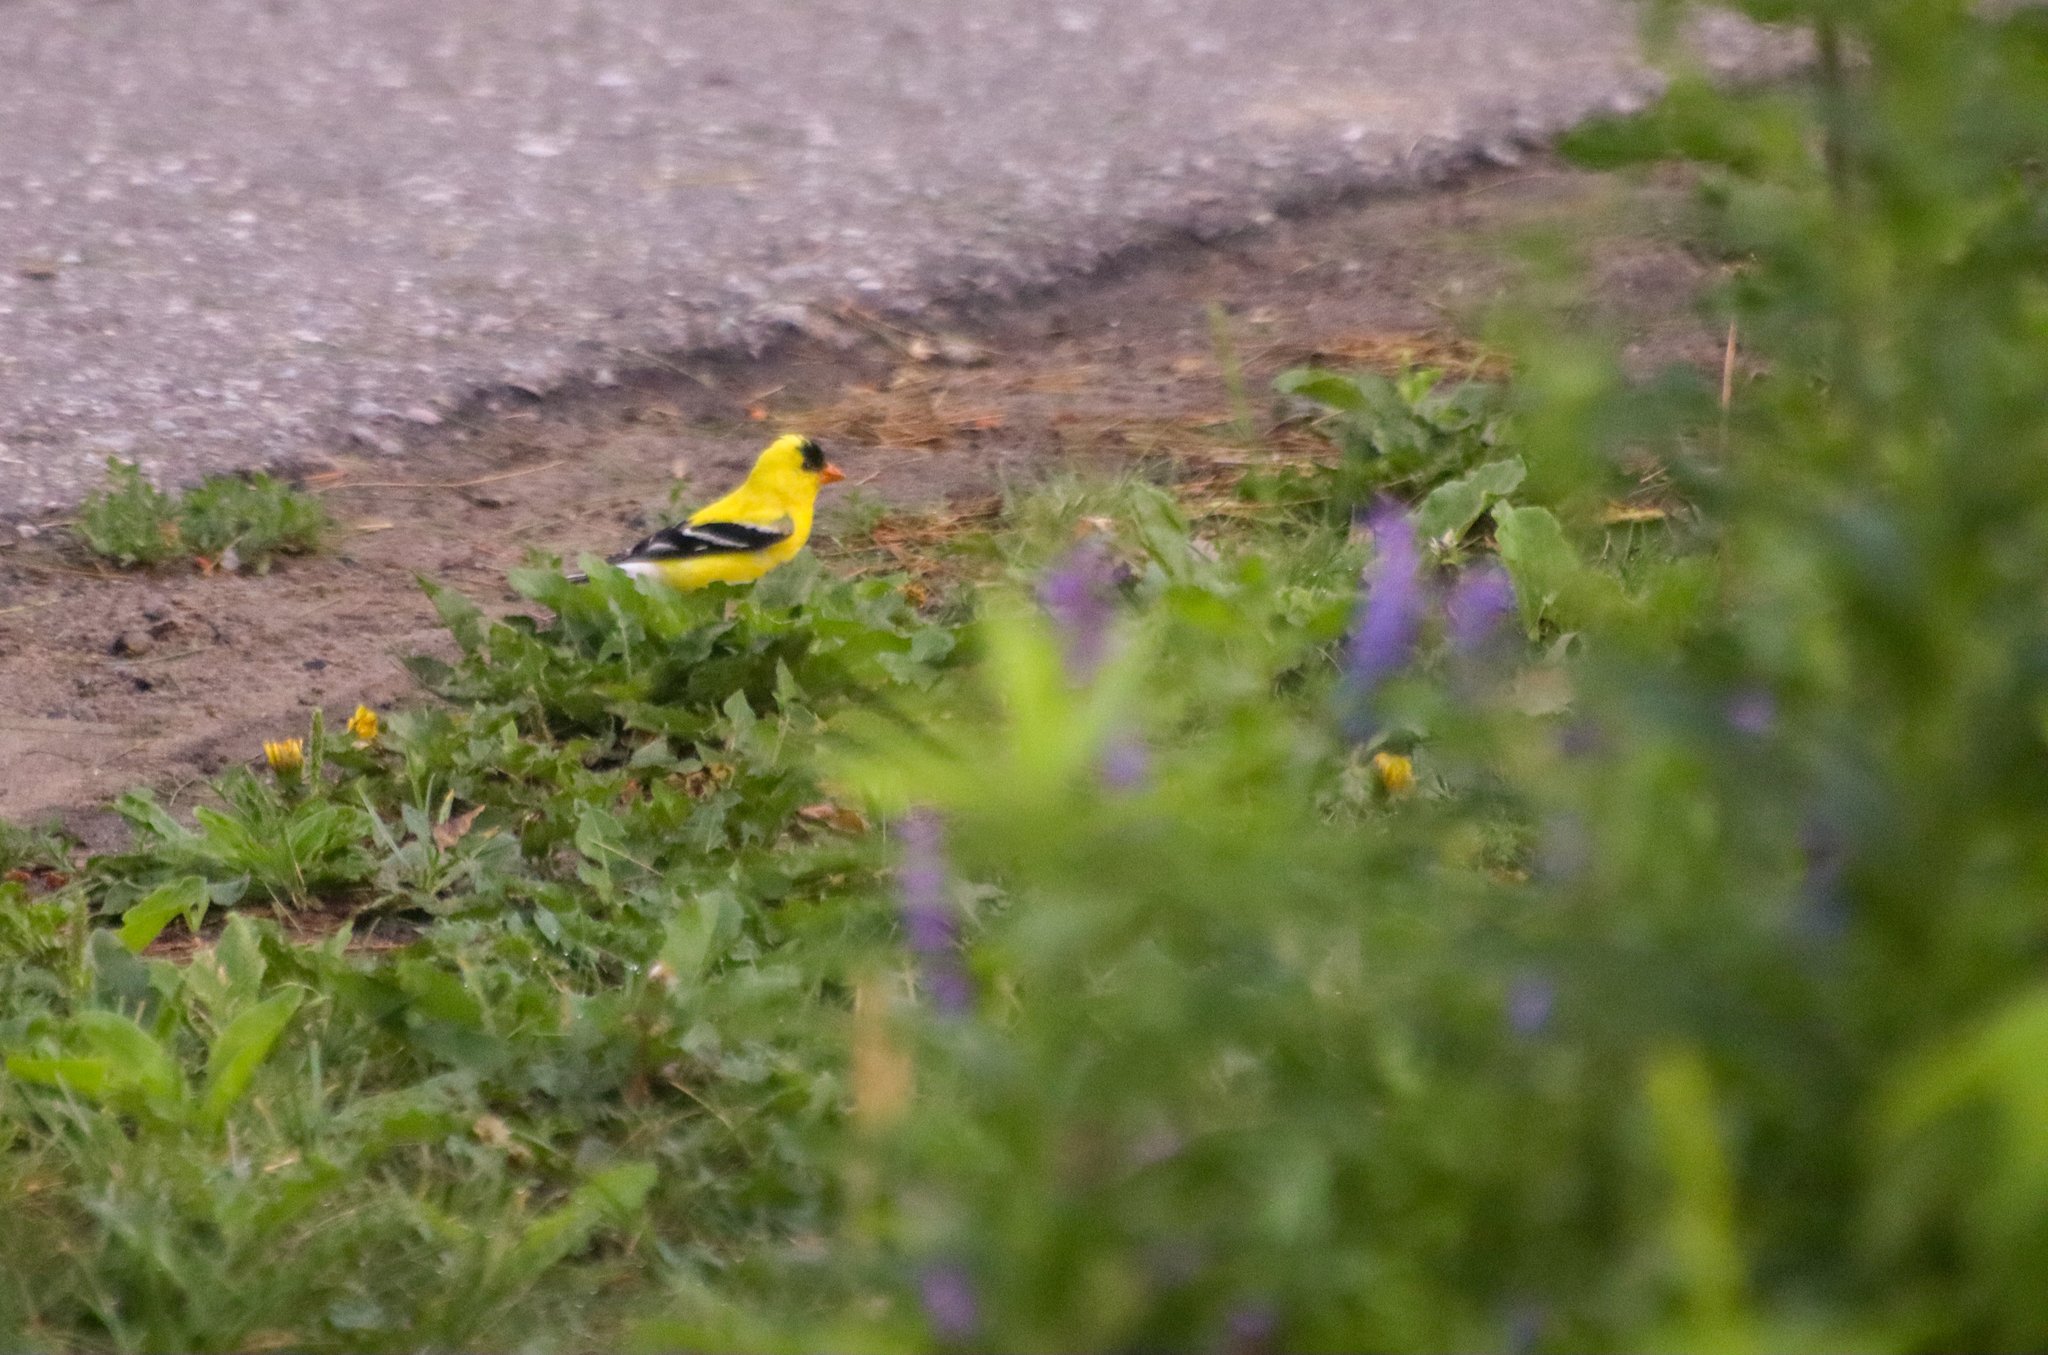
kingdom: Animalia
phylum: Chordata
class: Aves
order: Passeriformes
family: Fringillidae
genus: Spinus
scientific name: Spinus tristis
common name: American goldfinch
